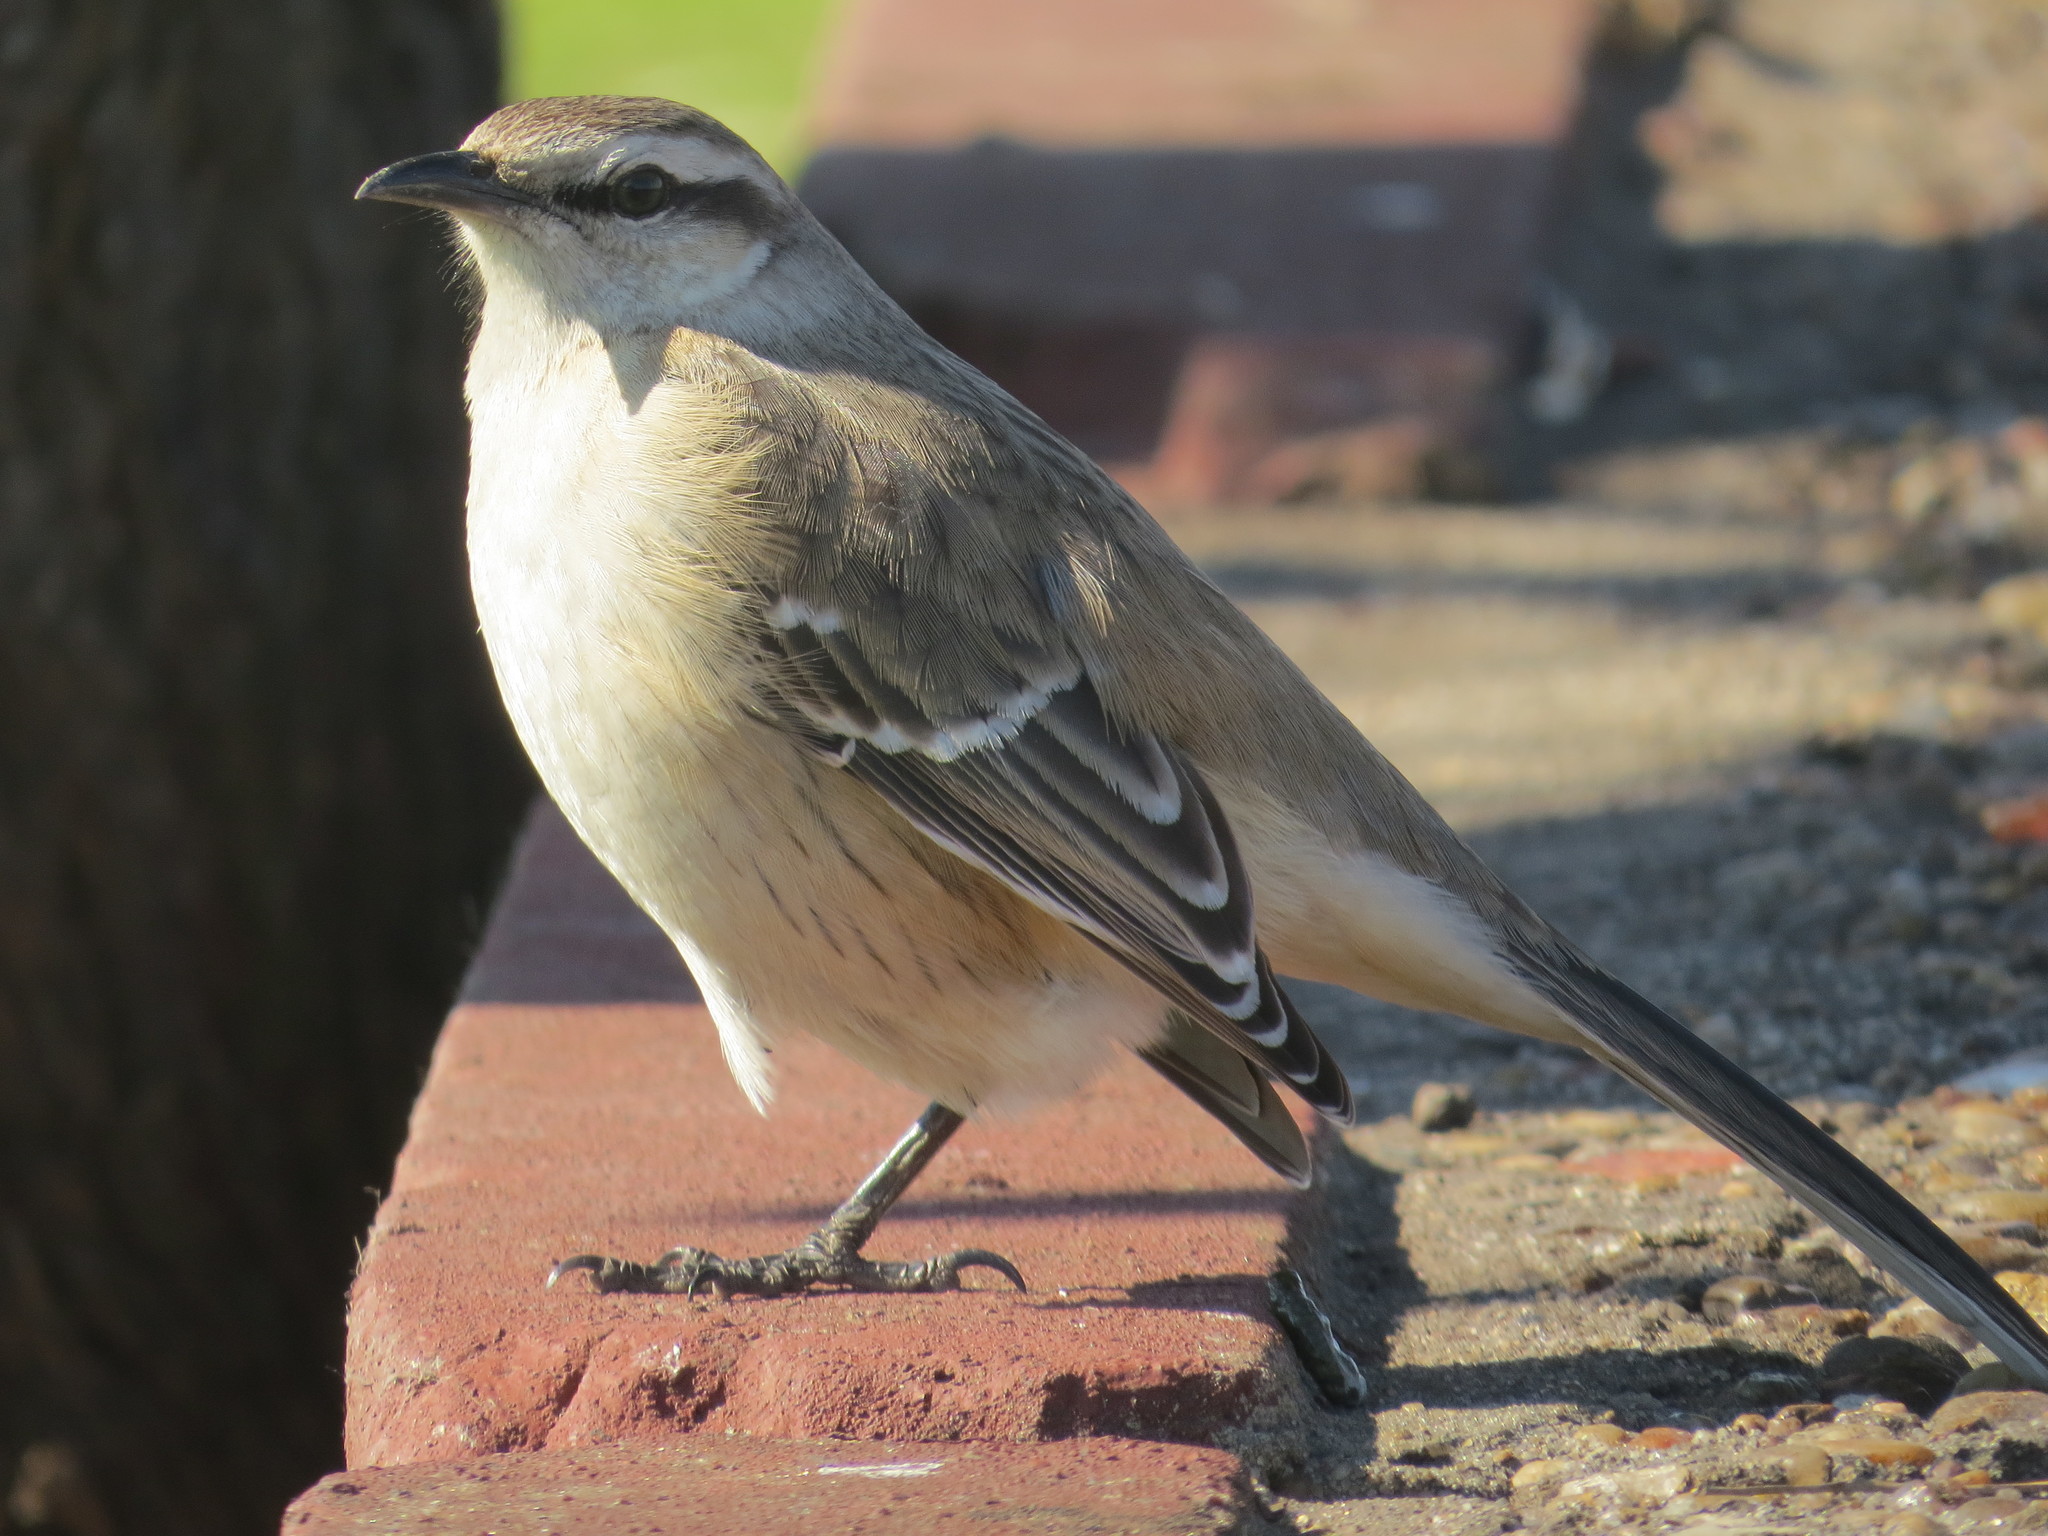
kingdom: Animalia
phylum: Chordata
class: Aves
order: Passeriformes
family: Mimidae
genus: Mimus
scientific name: Mimus saturninus
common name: Chalk-browed mockingbird
